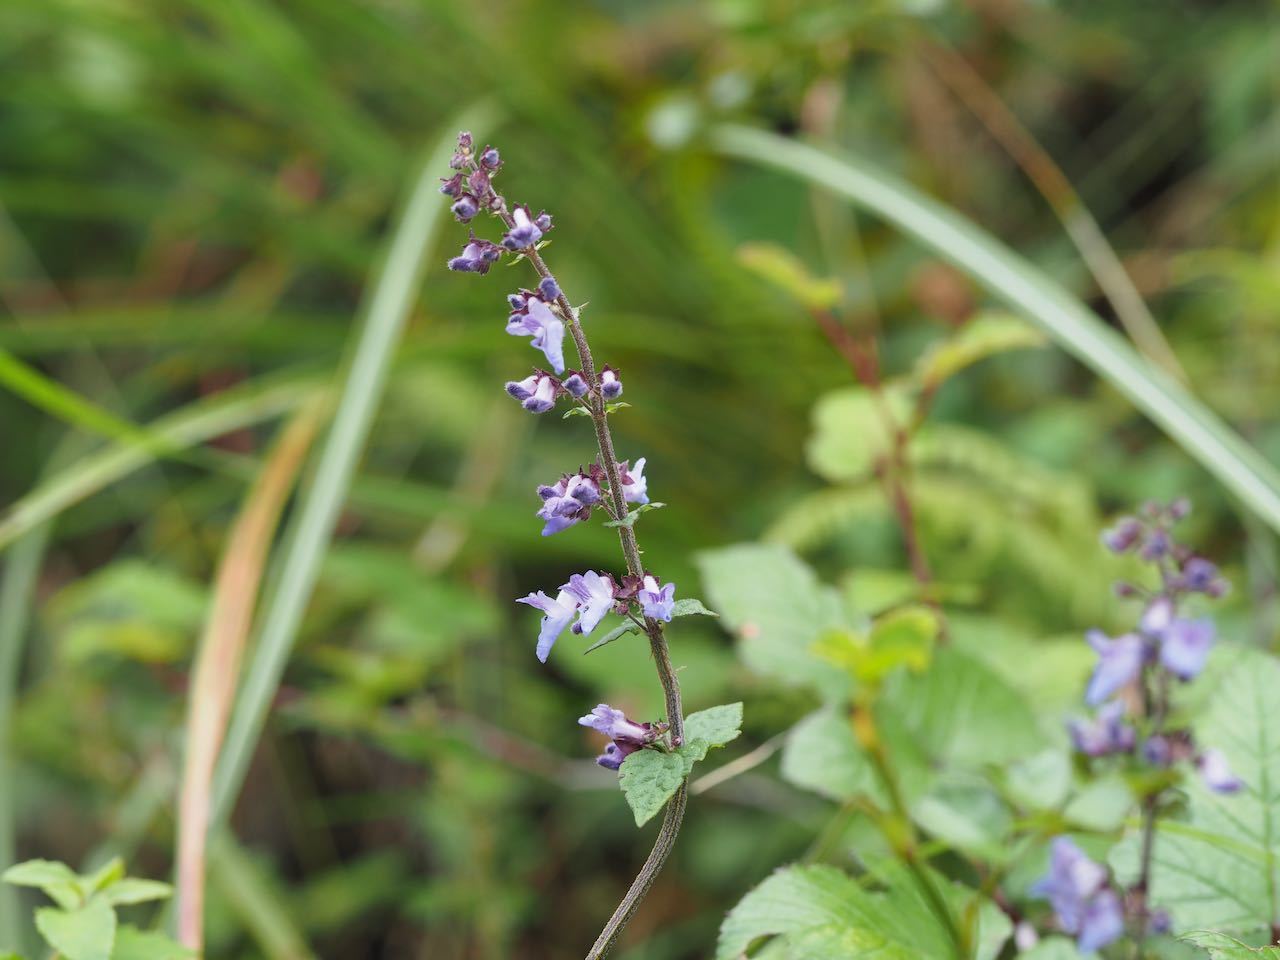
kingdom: Plantae
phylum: Tracheophyta
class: Magnoliopsida
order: Lamiales
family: Lamiaceae
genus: Isodon
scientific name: Isodon inflexus
